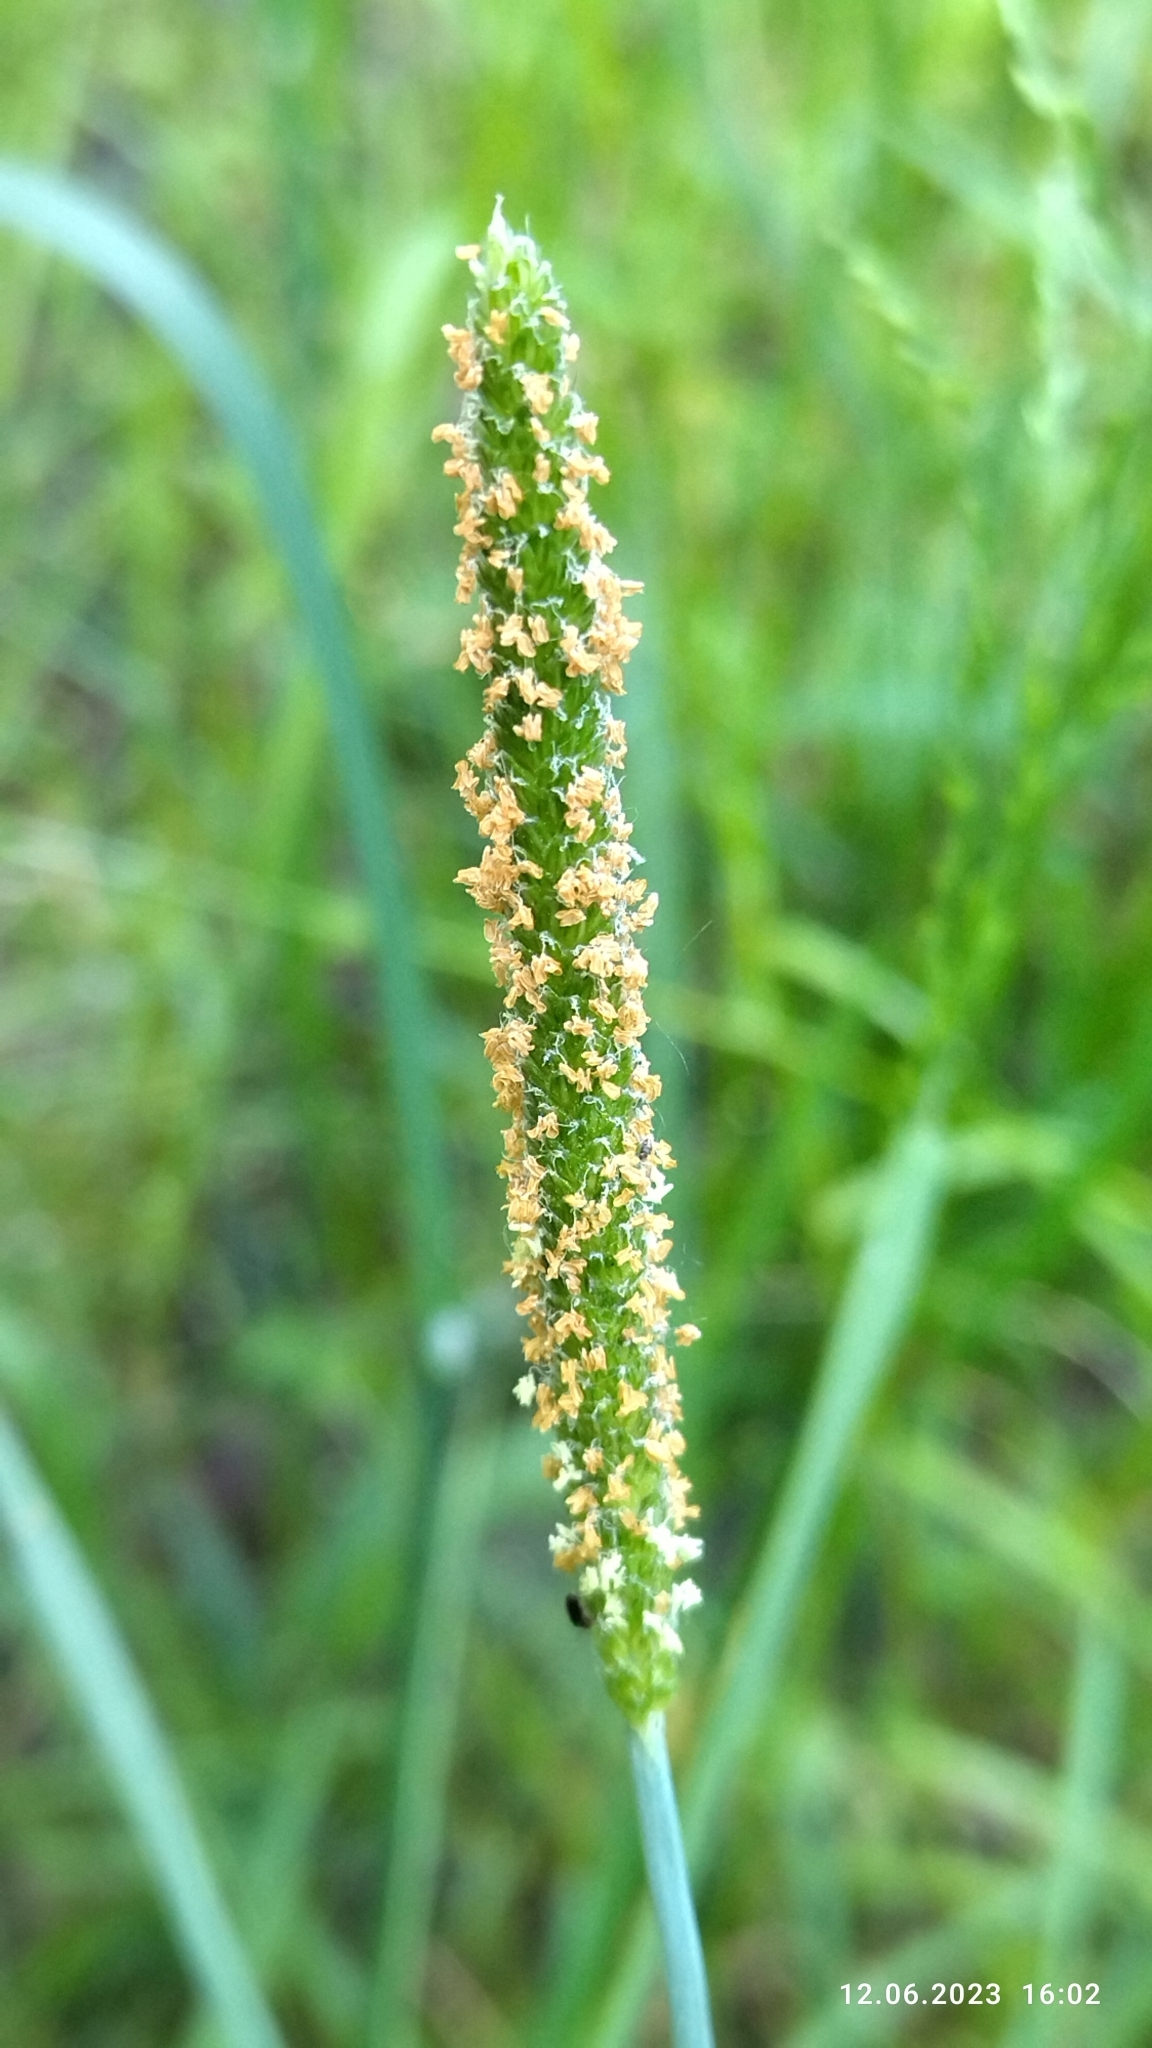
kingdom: Plantae
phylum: Tracheophyta
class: Liliopsida
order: Poales
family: Poaceae
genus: Alopecurus
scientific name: Alopecurus aequalis
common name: Orange foxtail
